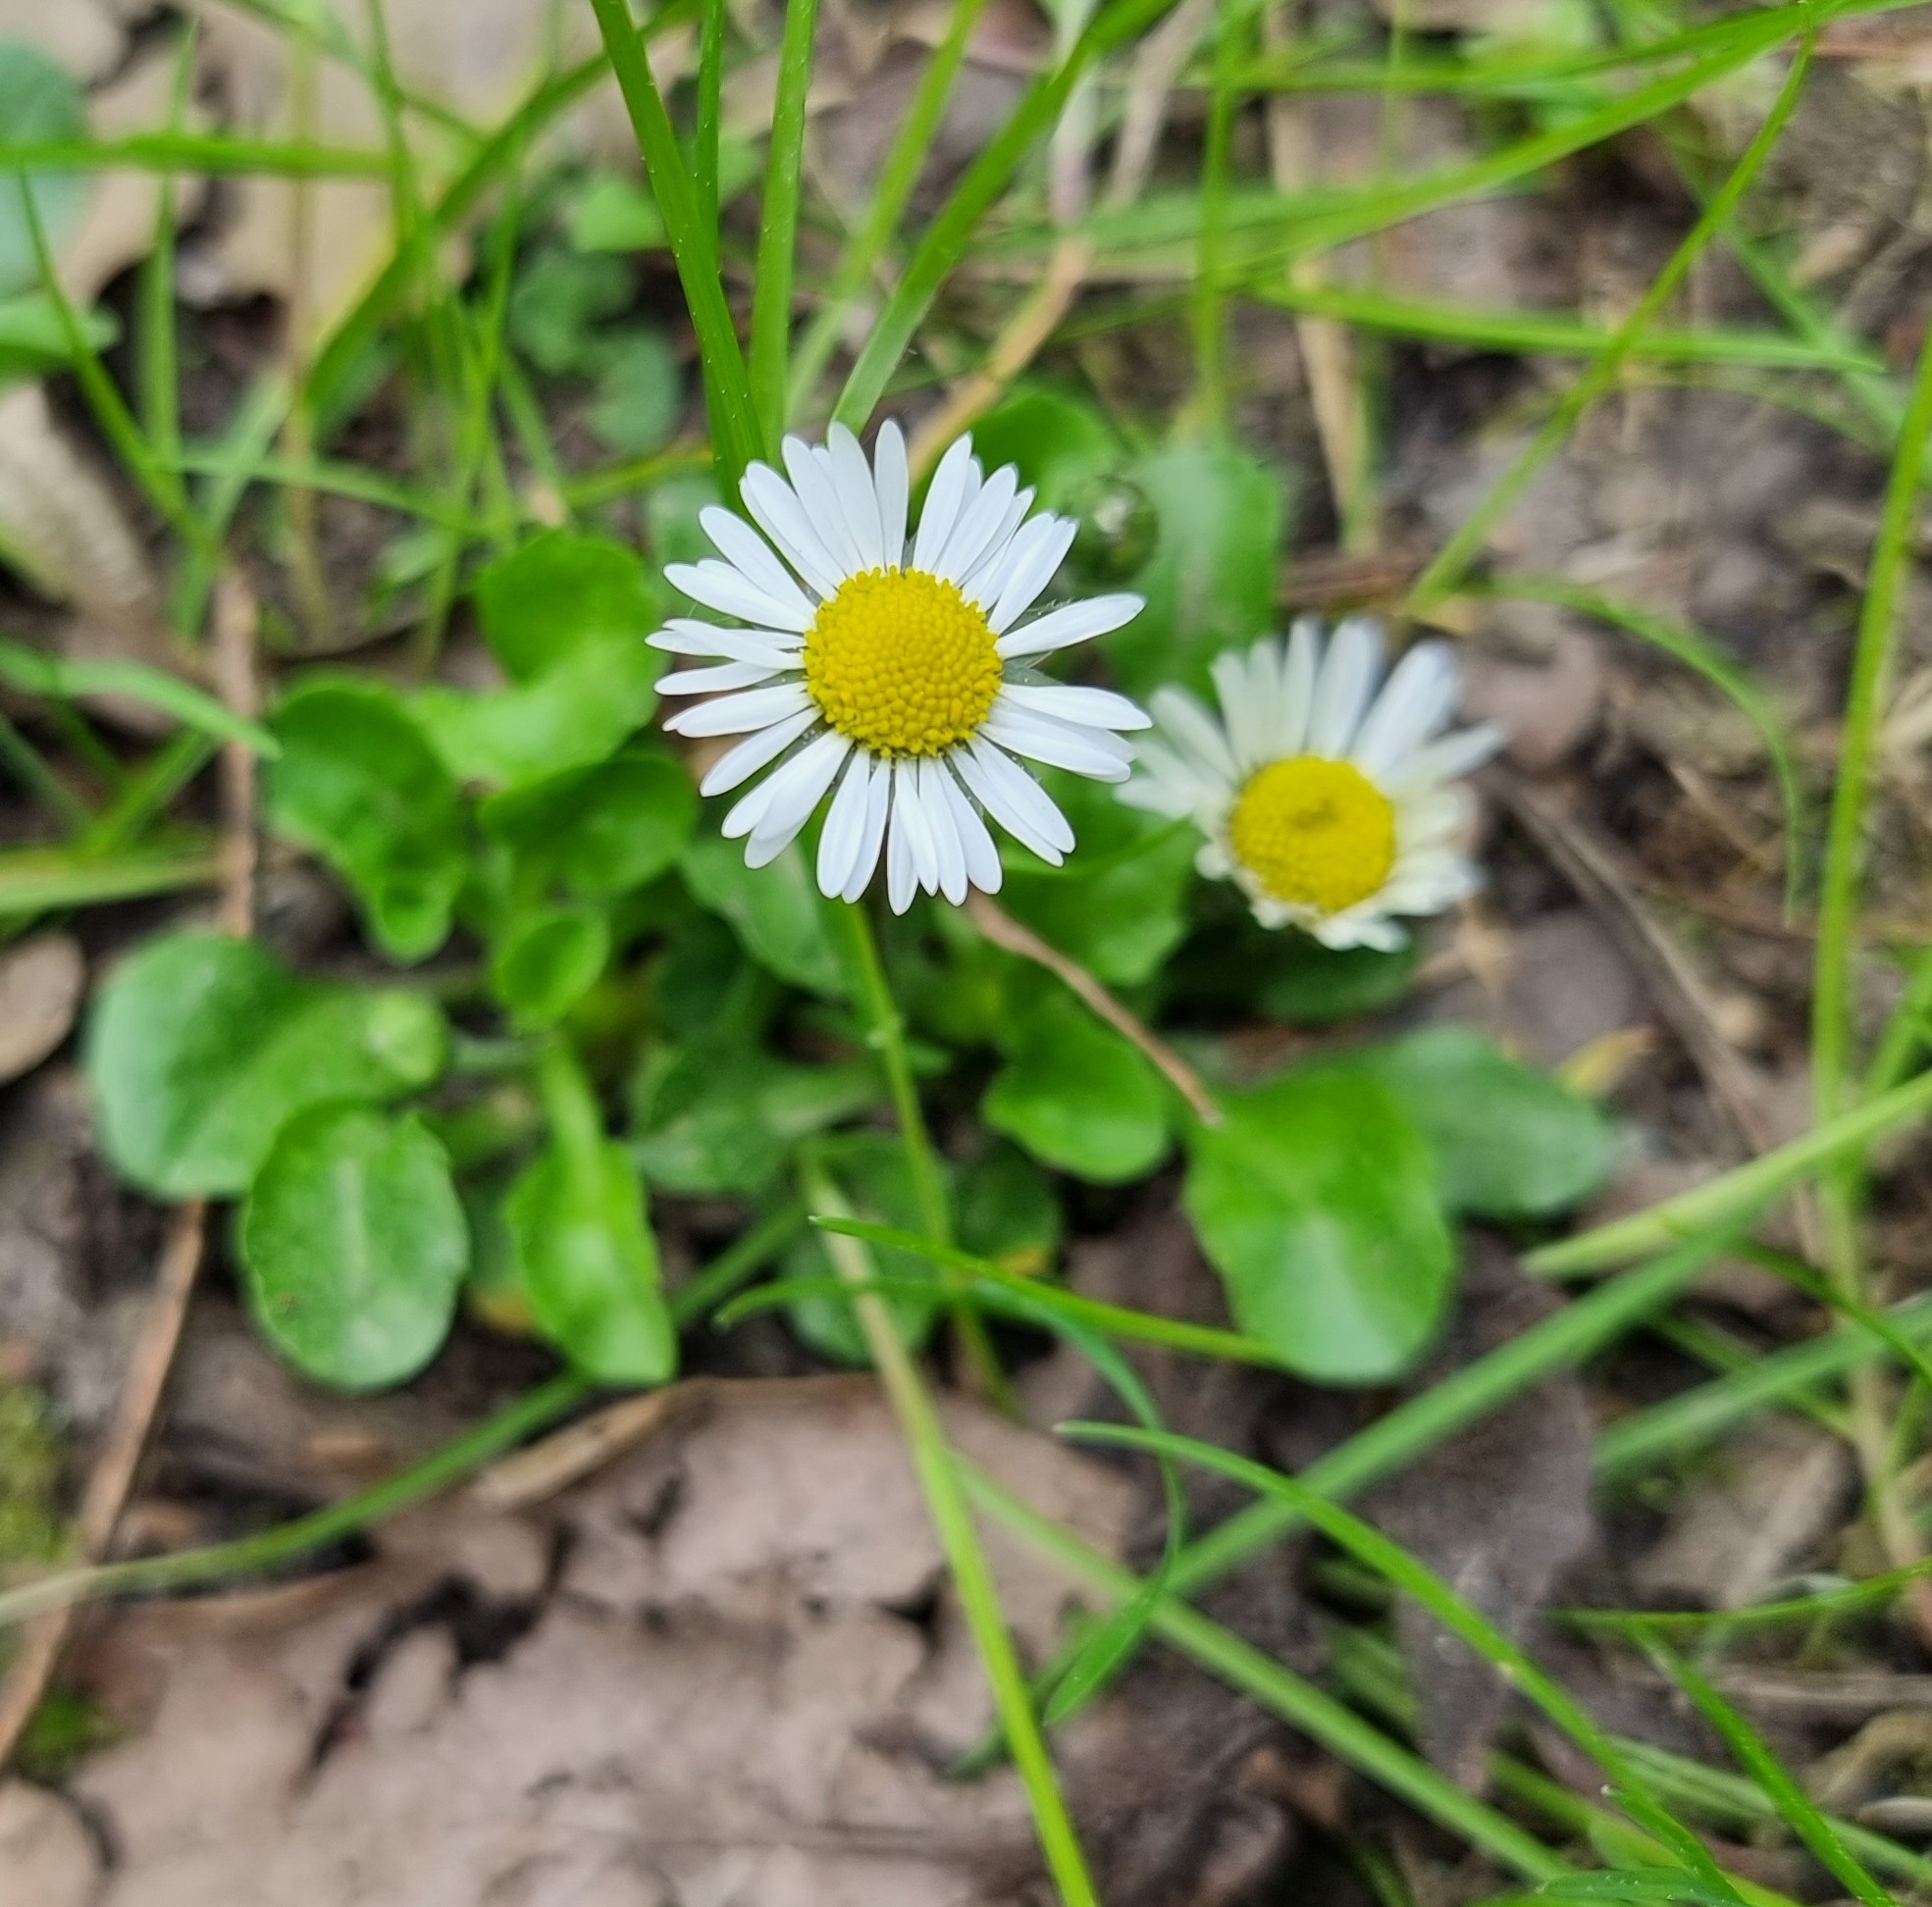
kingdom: Plantae
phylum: Tracheophyta
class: Magnoliopsida
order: Asterales
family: Asteraceae
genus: Bellis
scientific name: Bellis perennis
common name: Lawndaisy
